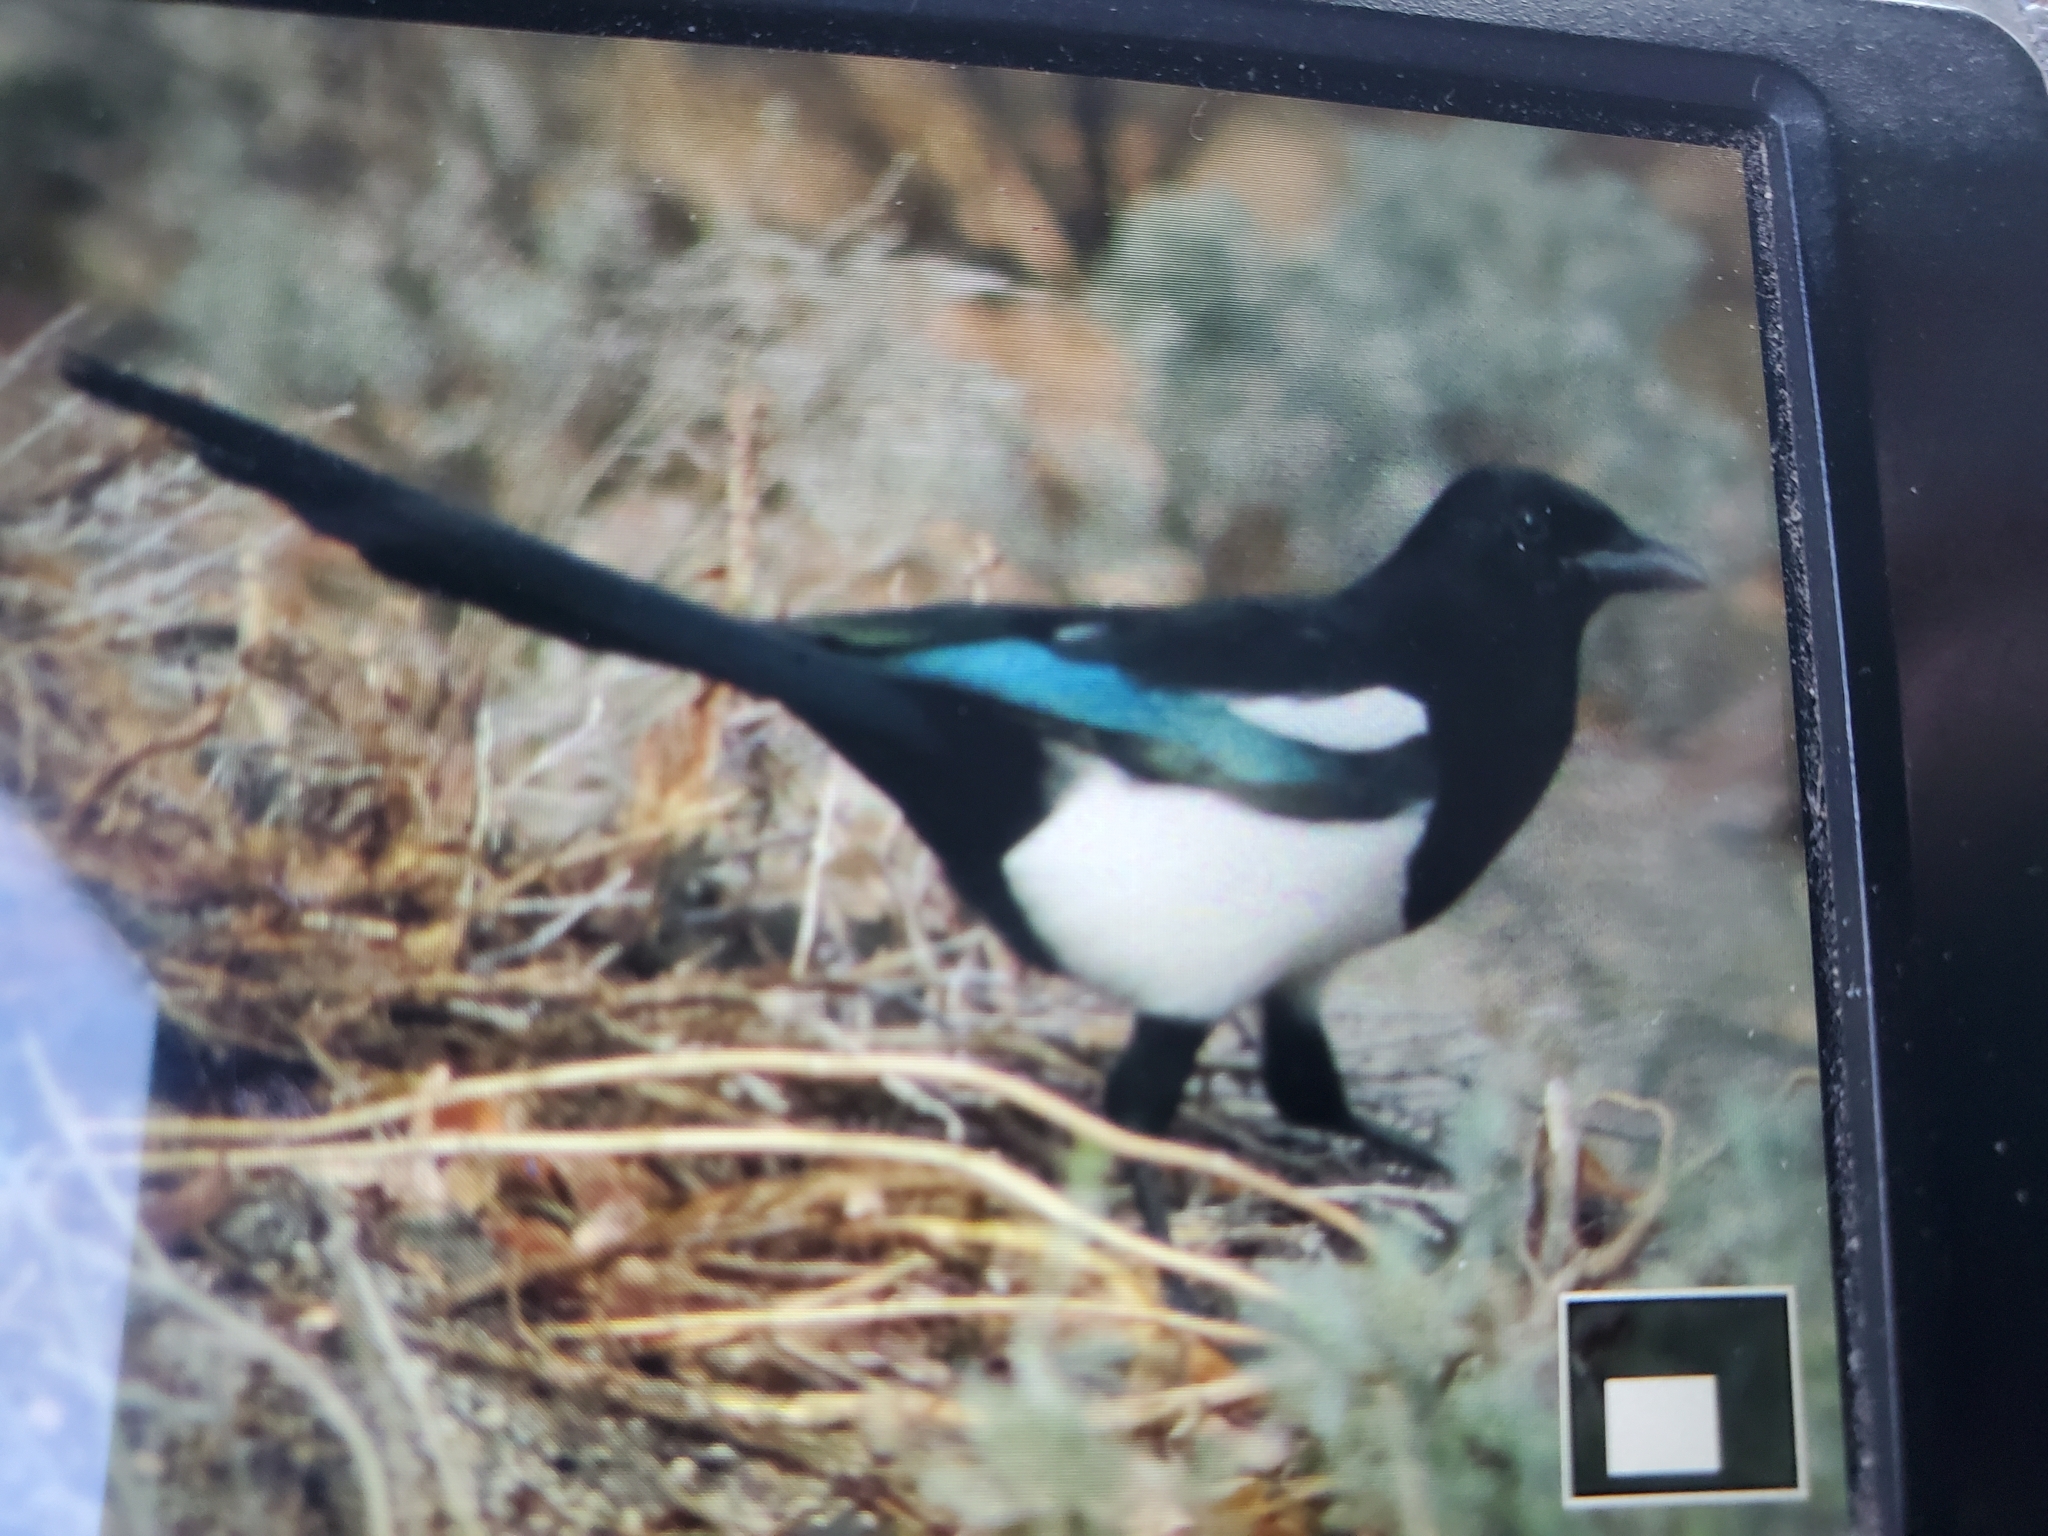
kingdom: Animalia
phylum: Chordata
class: Aves
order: Passeriformes
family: Corvidae
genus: Pica
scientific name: Pica hudsonia
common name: Black-billed magpie
